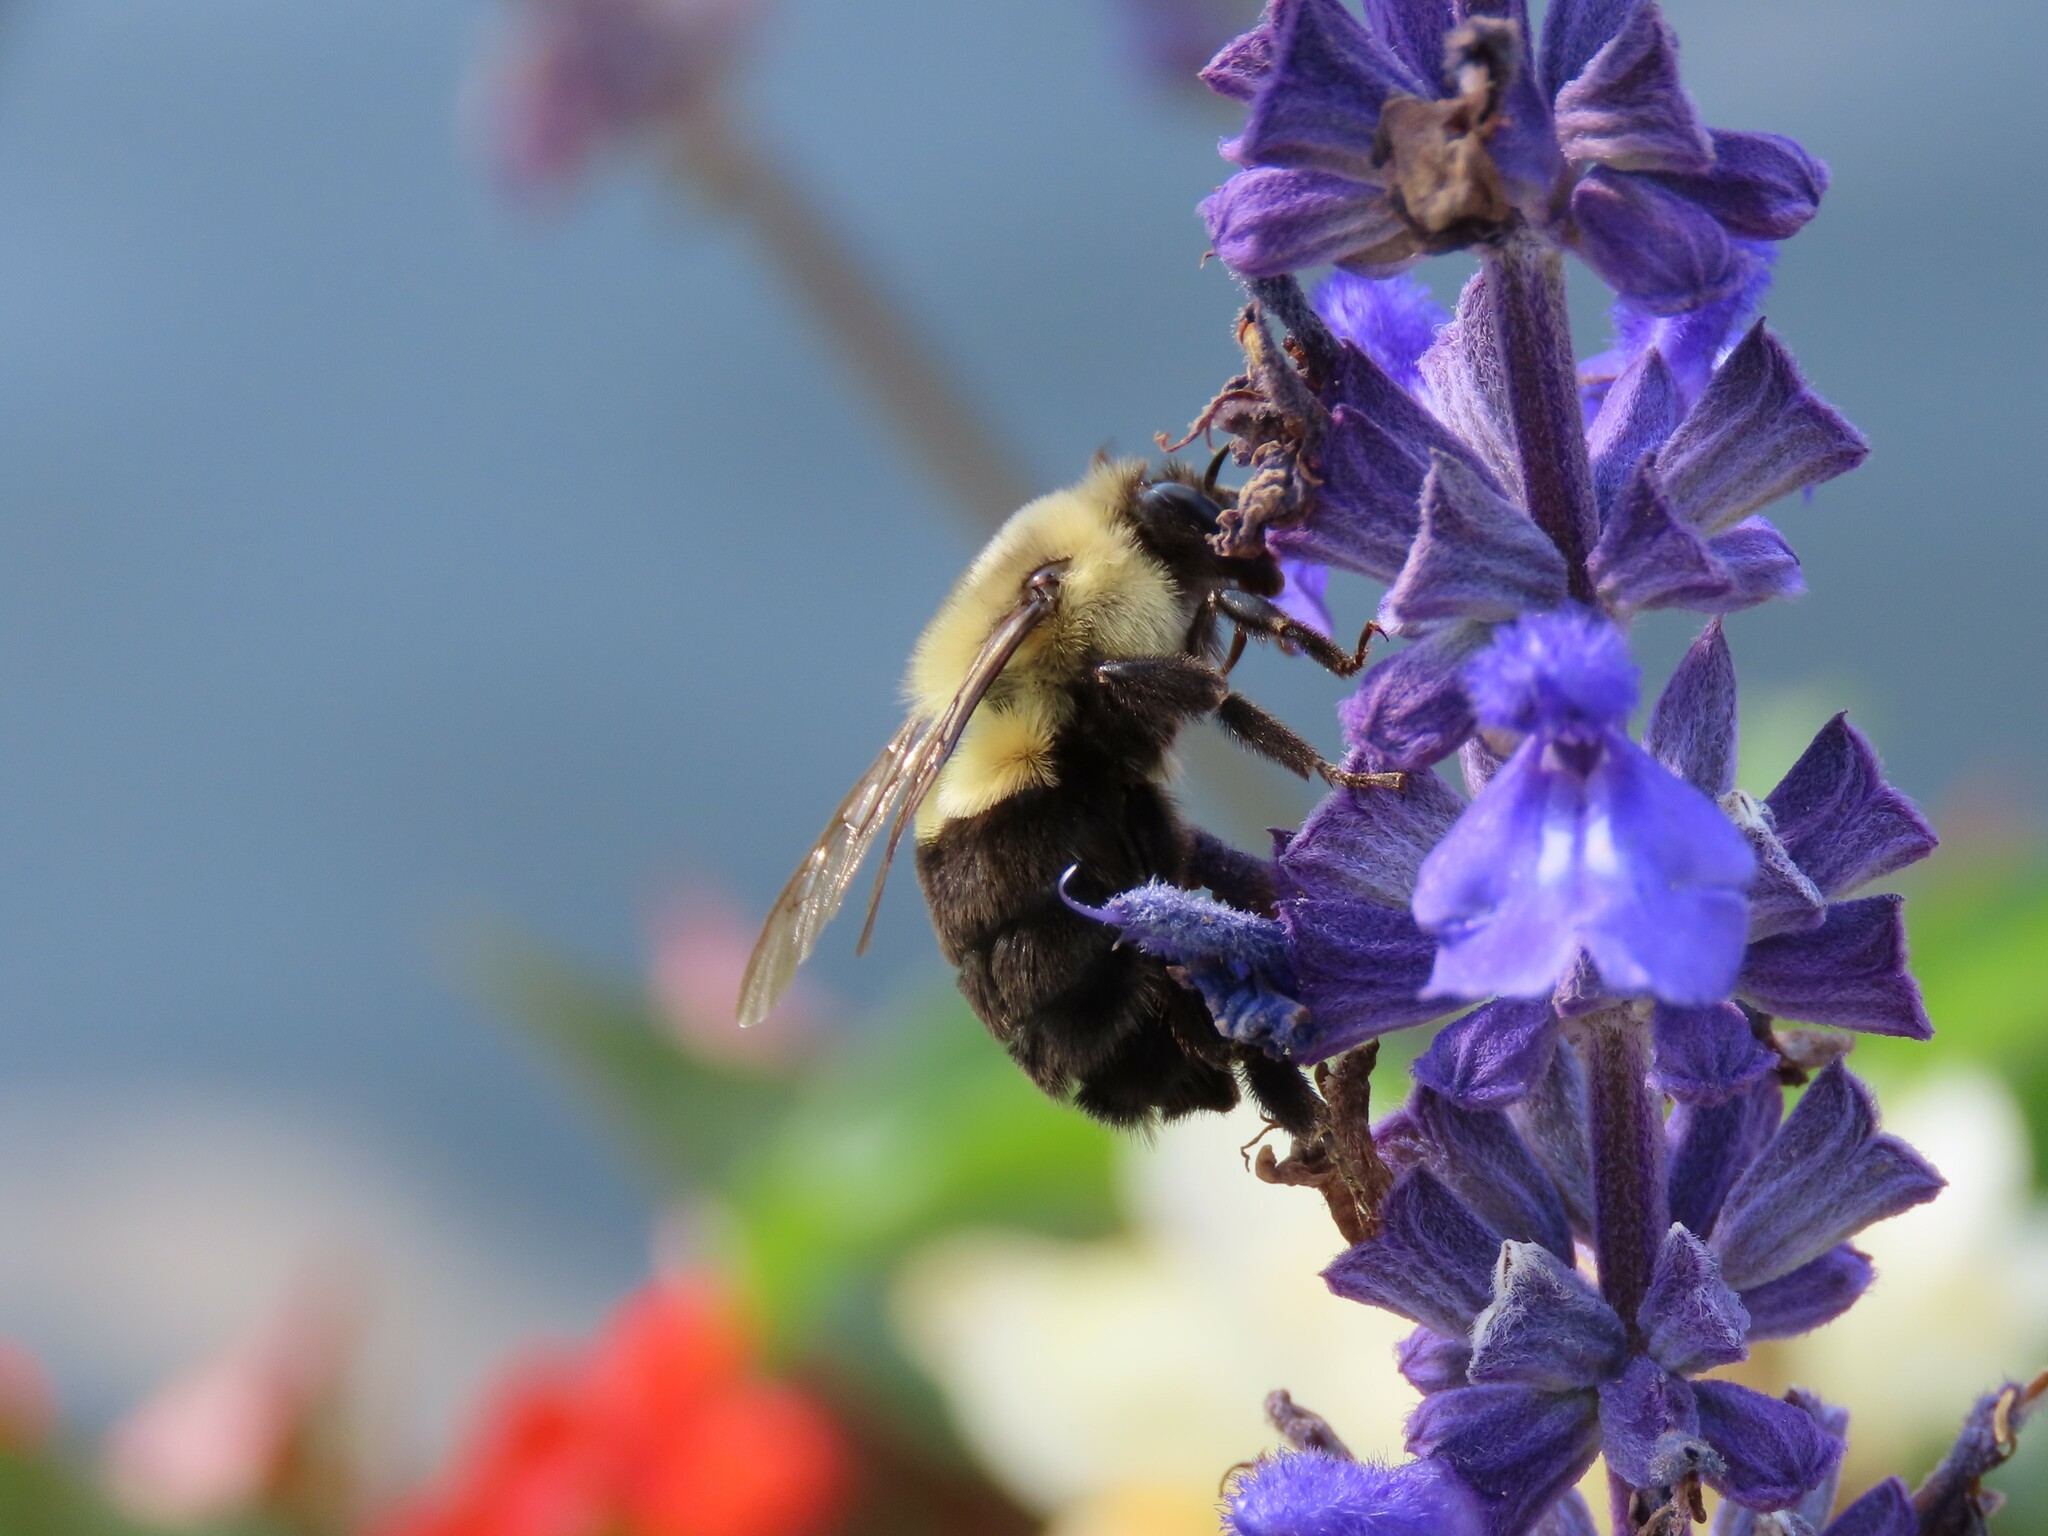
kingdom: Animalia
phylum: Arthropoda
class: Insecta
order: Hymenoptera
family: Apidae
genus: Bombus
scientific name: Bombus impatiens
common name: Common eastern bumble bee
